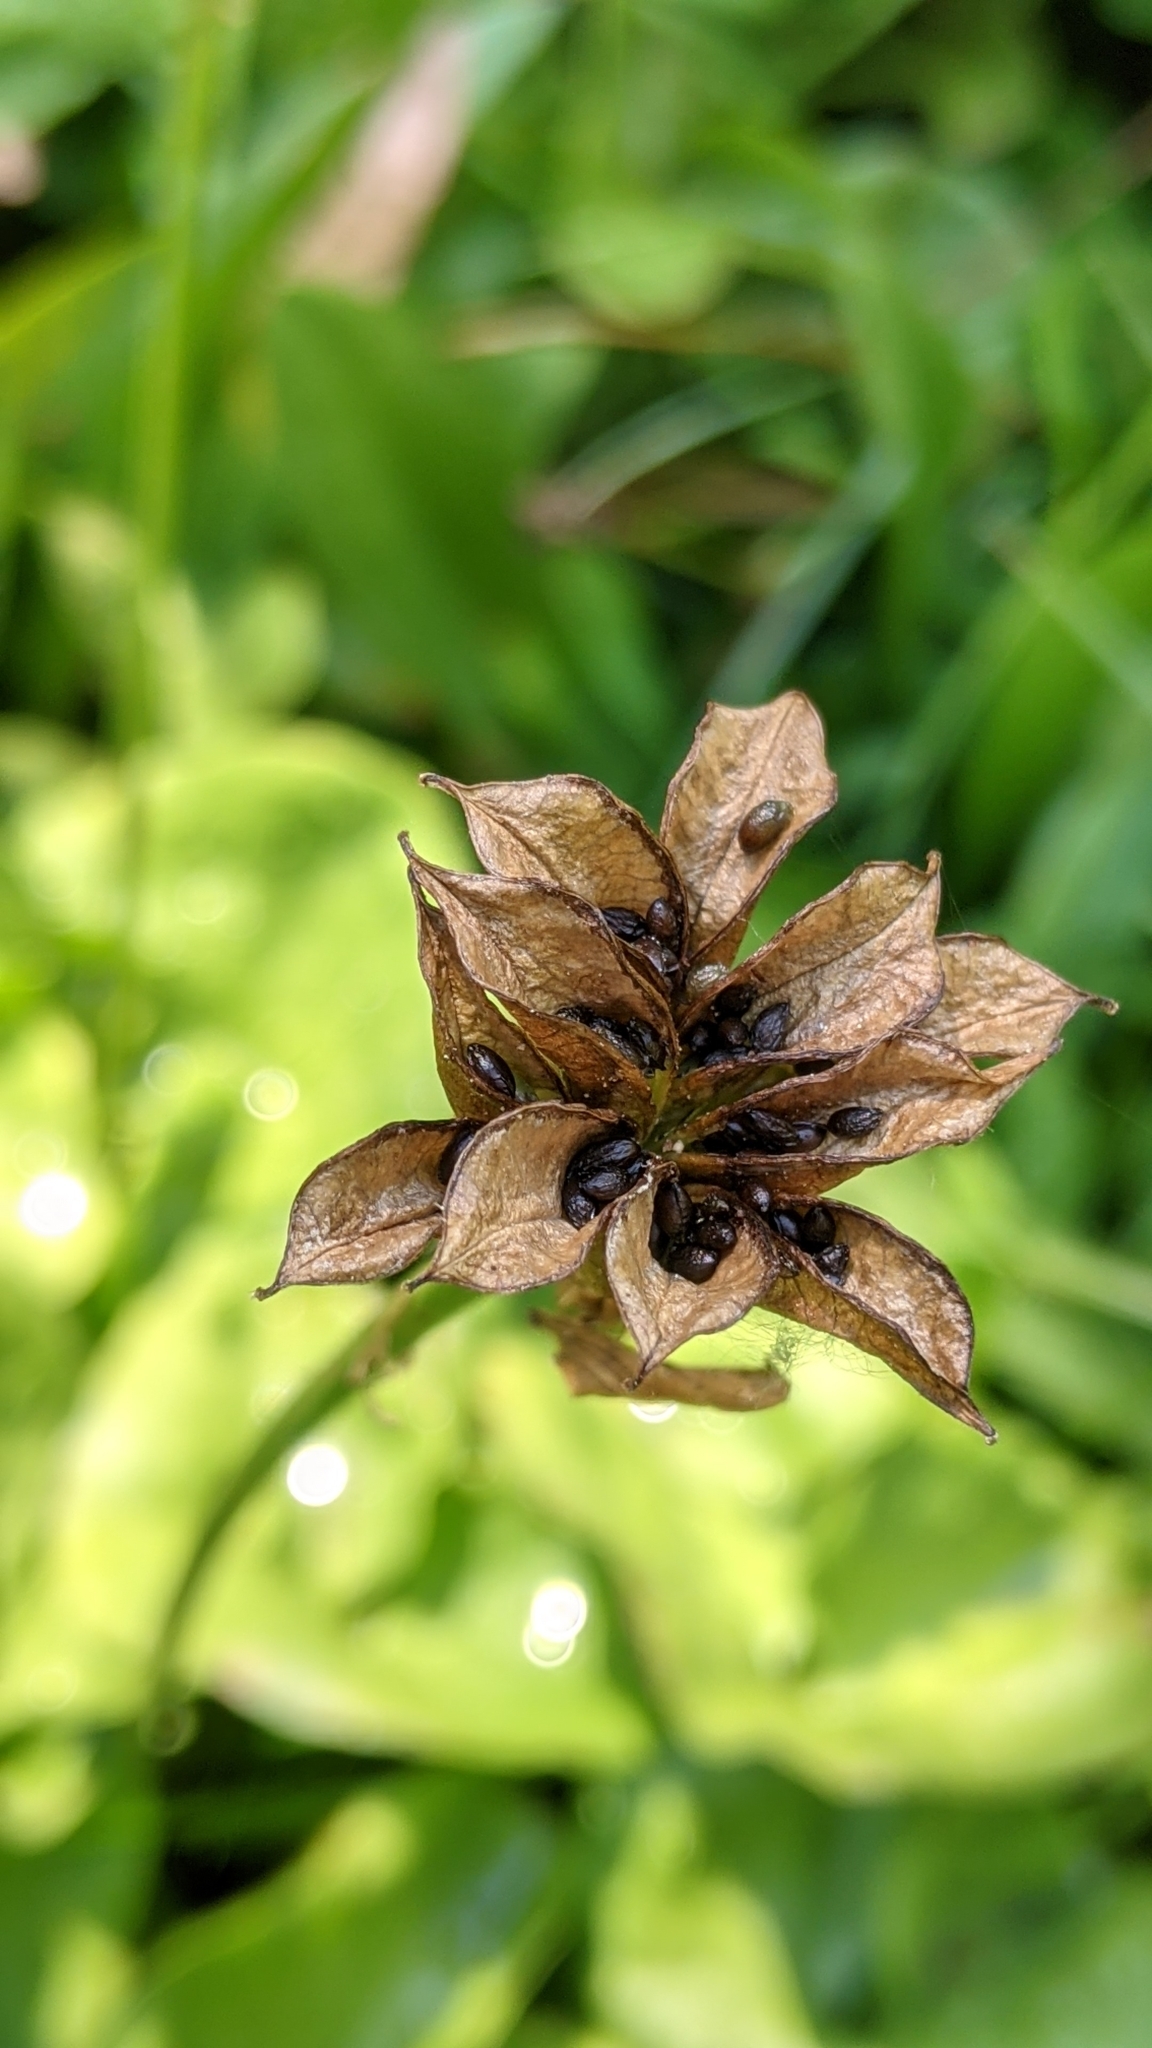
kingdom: Plantae
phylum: Tracheophyta
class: Magnoliopsida
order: Ranunculales
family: Ranunculaceae
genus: Caltha
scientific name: Caltha leptosepala
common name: Elkslip
